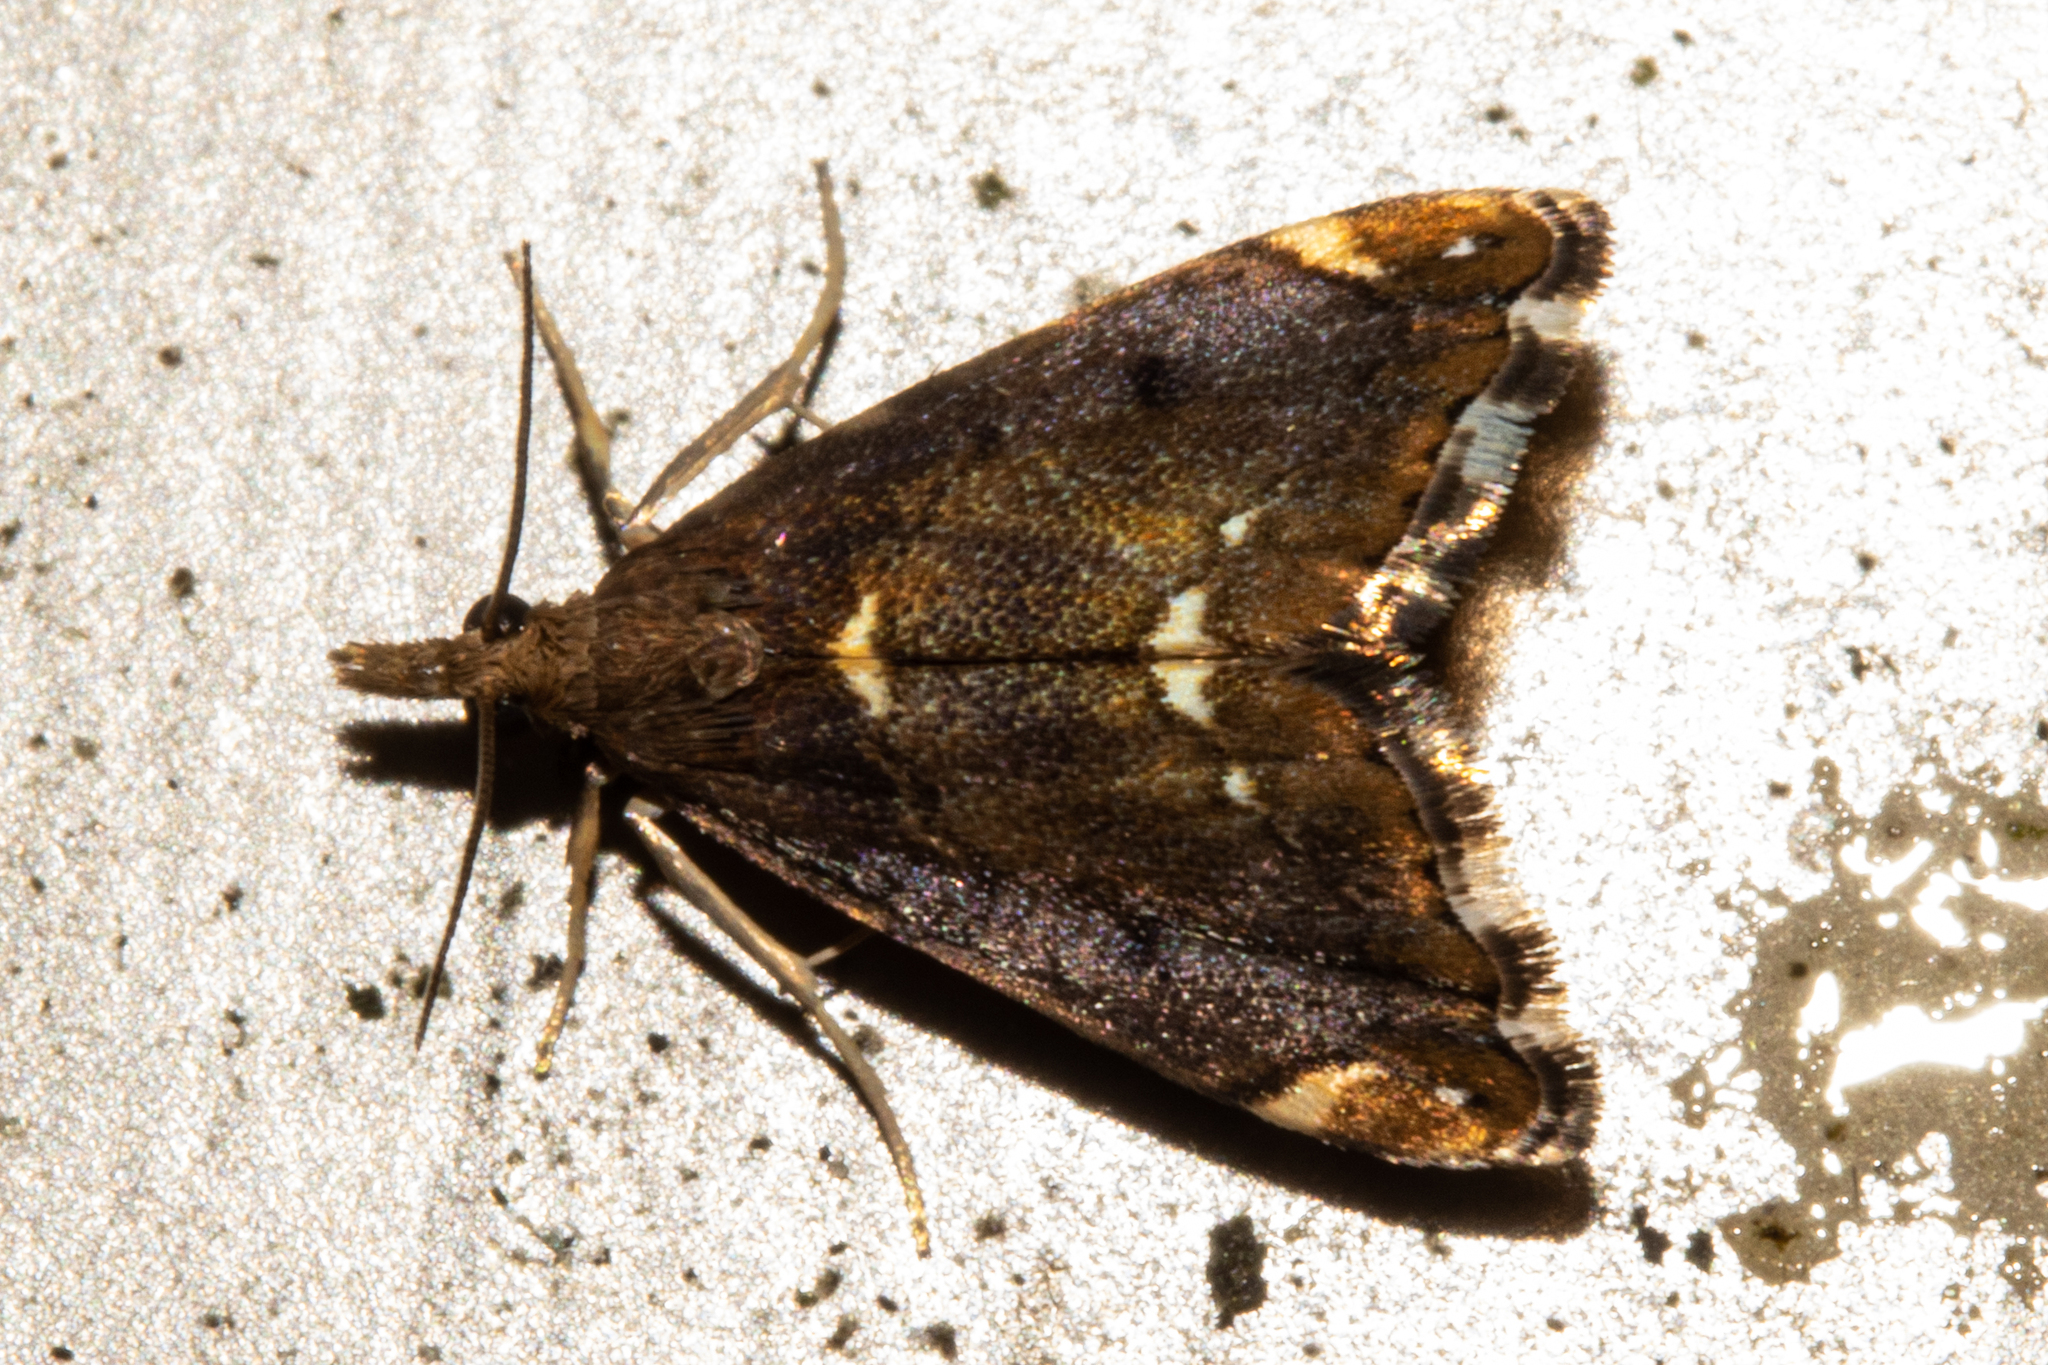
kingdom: Animalia
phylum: Arthropoda
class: Insecta
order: Lepidoptera
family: Crambidae
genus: Glaucocharis
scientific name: Glaucocharis pyrsophanes
